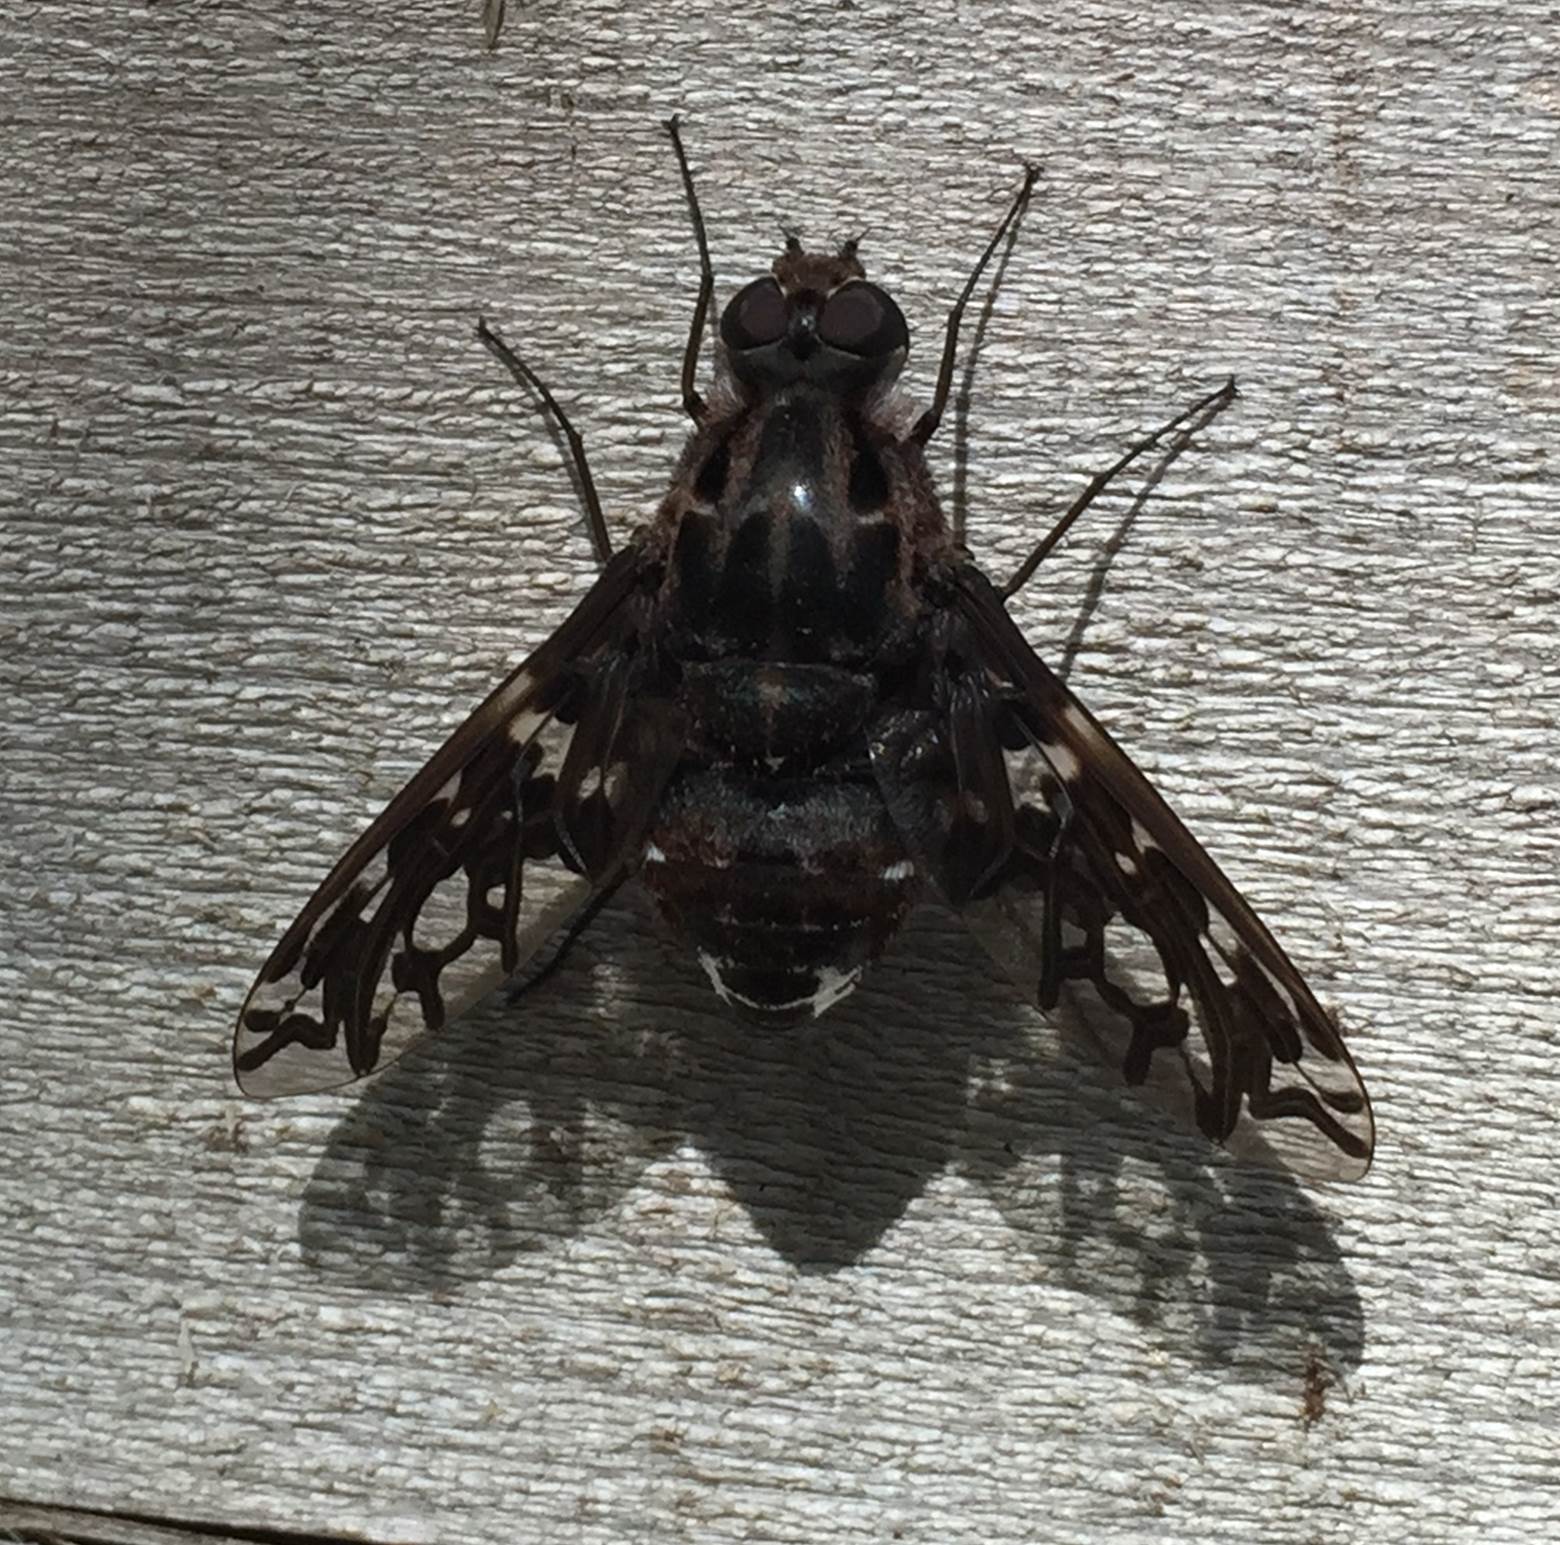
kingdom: Animalia
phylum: Arthropoda
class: Insecta
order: Diptera
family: Bombyliidae
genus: Xenox
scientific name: Xenox tigrinus
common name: Tiger bee fly
